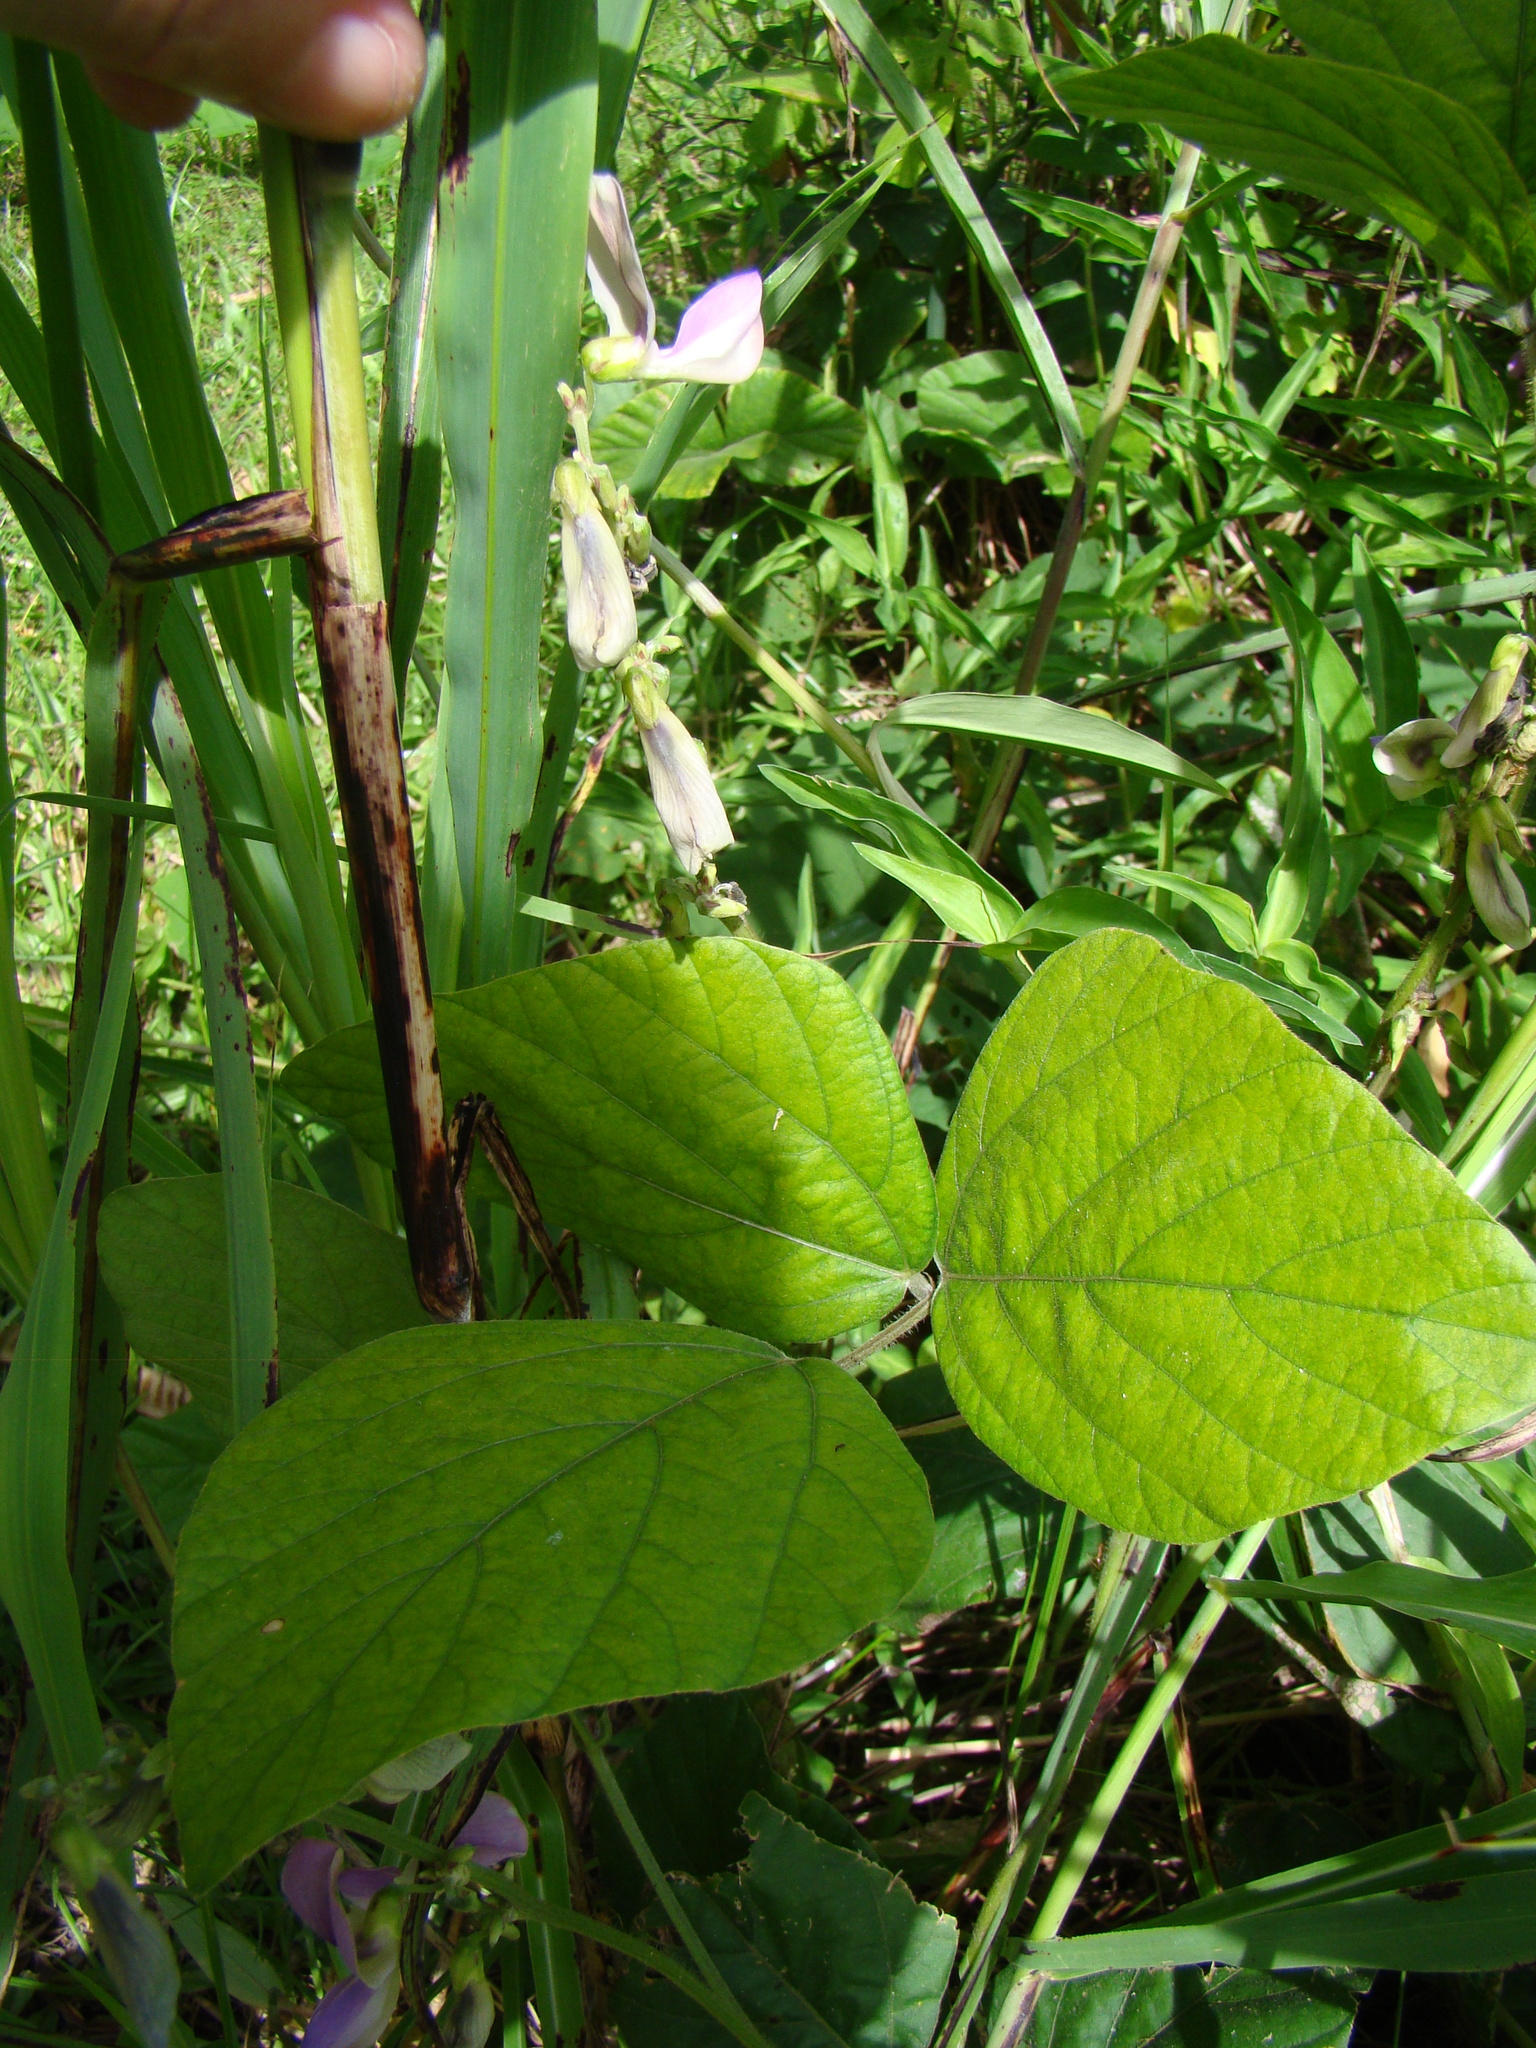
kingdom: Plantae
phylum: Tracheophyta
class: Magnoliopsida
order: Fabales
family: Fabaceae
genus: Neustanthus
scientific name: Neustanthus phaseoloides
